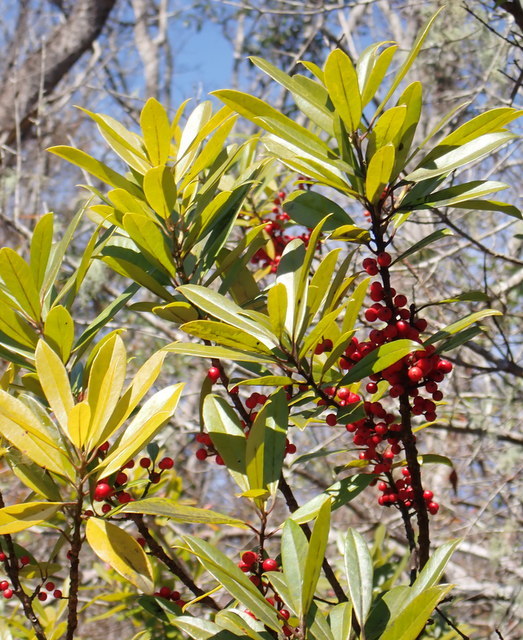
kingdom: Plantae
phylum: Tracheophyta
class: Magnoliopsida
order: Aquifoliales
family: Aquifoliaceae
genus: Ilex
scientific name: Ilex cassine
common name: Dahoon
